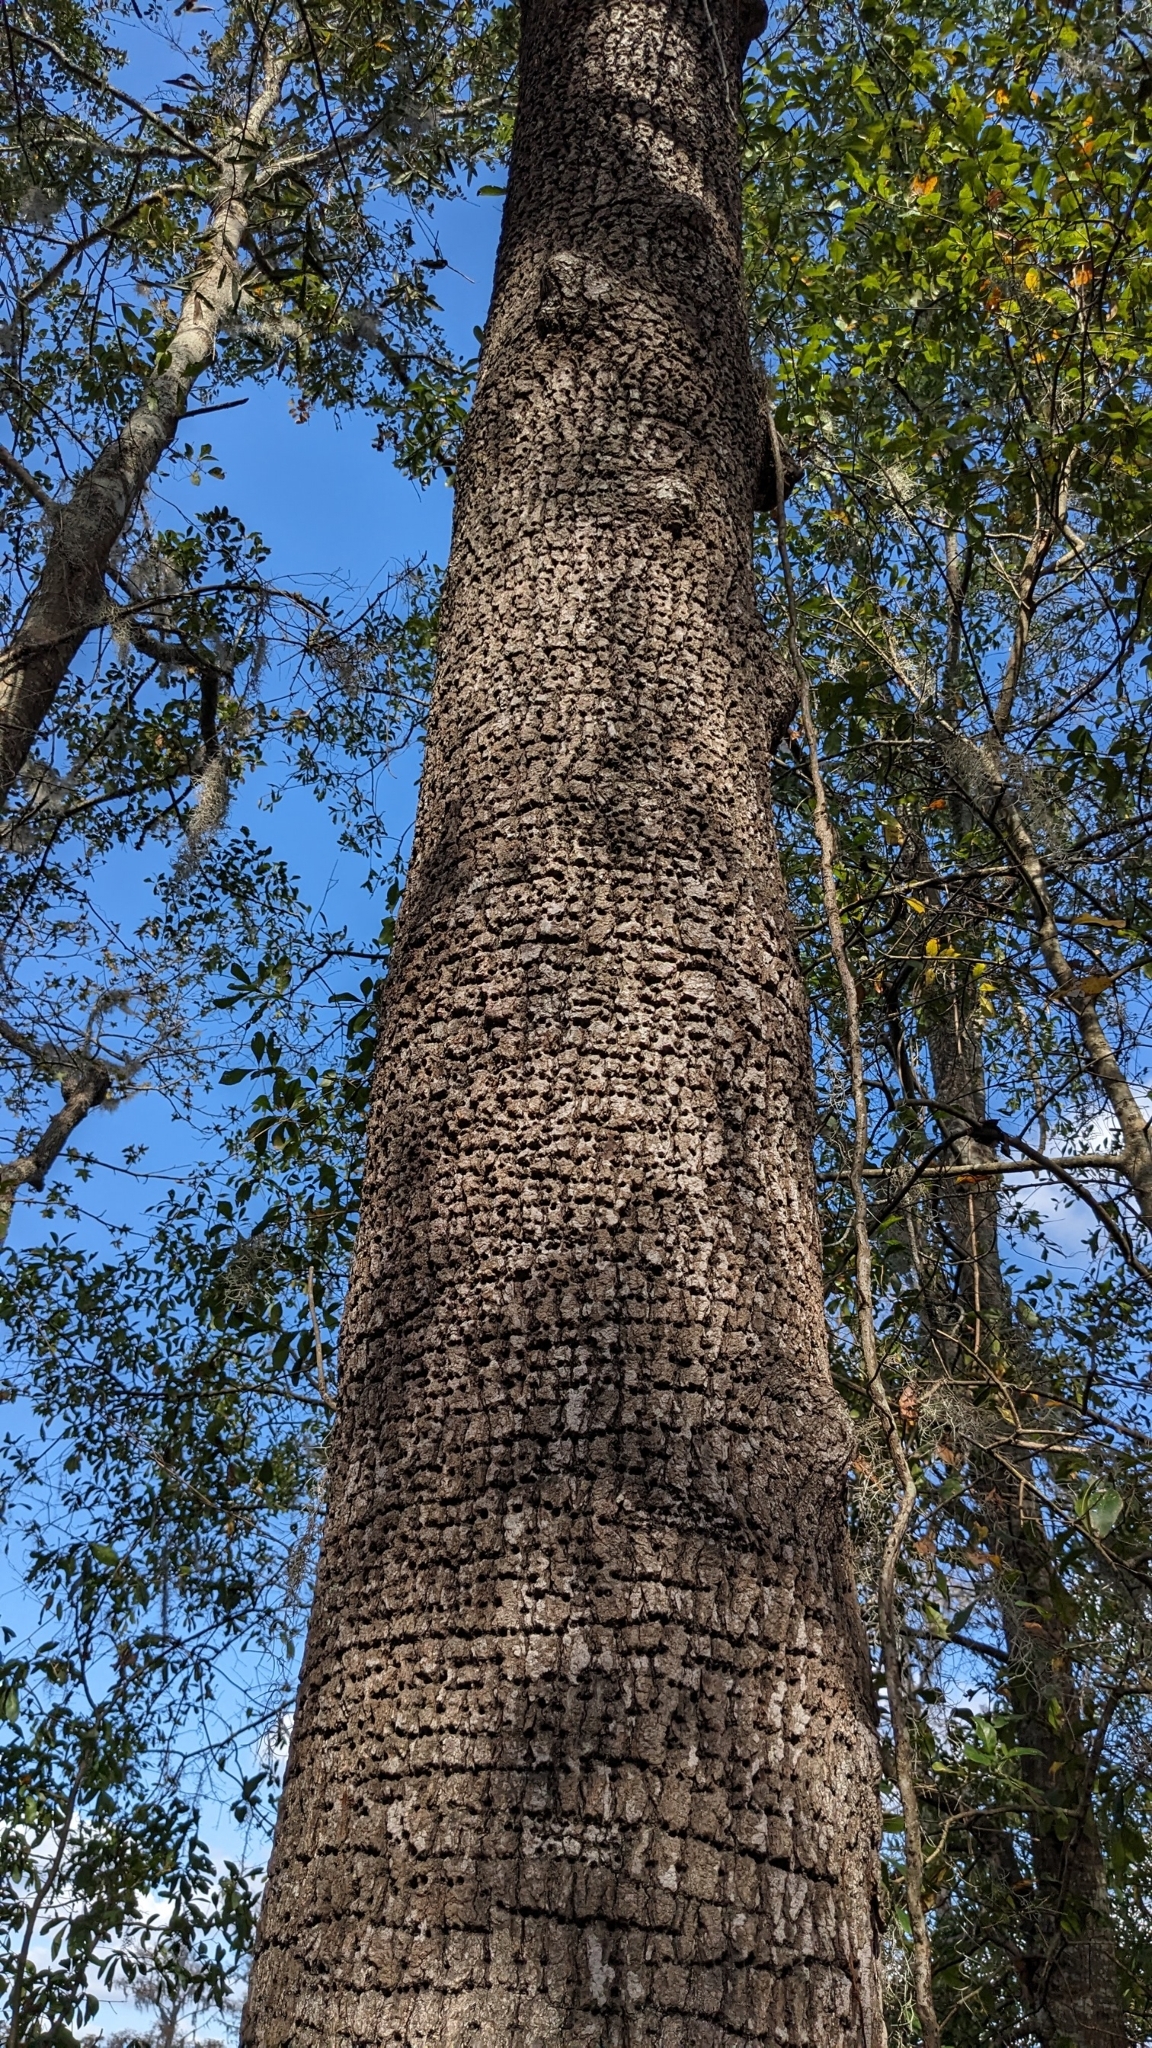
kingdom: Animalia
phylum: Chordata
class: Aves
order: Piciformes
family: Picidae
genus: Sphyrapicus
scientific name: Sphyrapicus varius
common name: Yellow-bellied sapsucker
